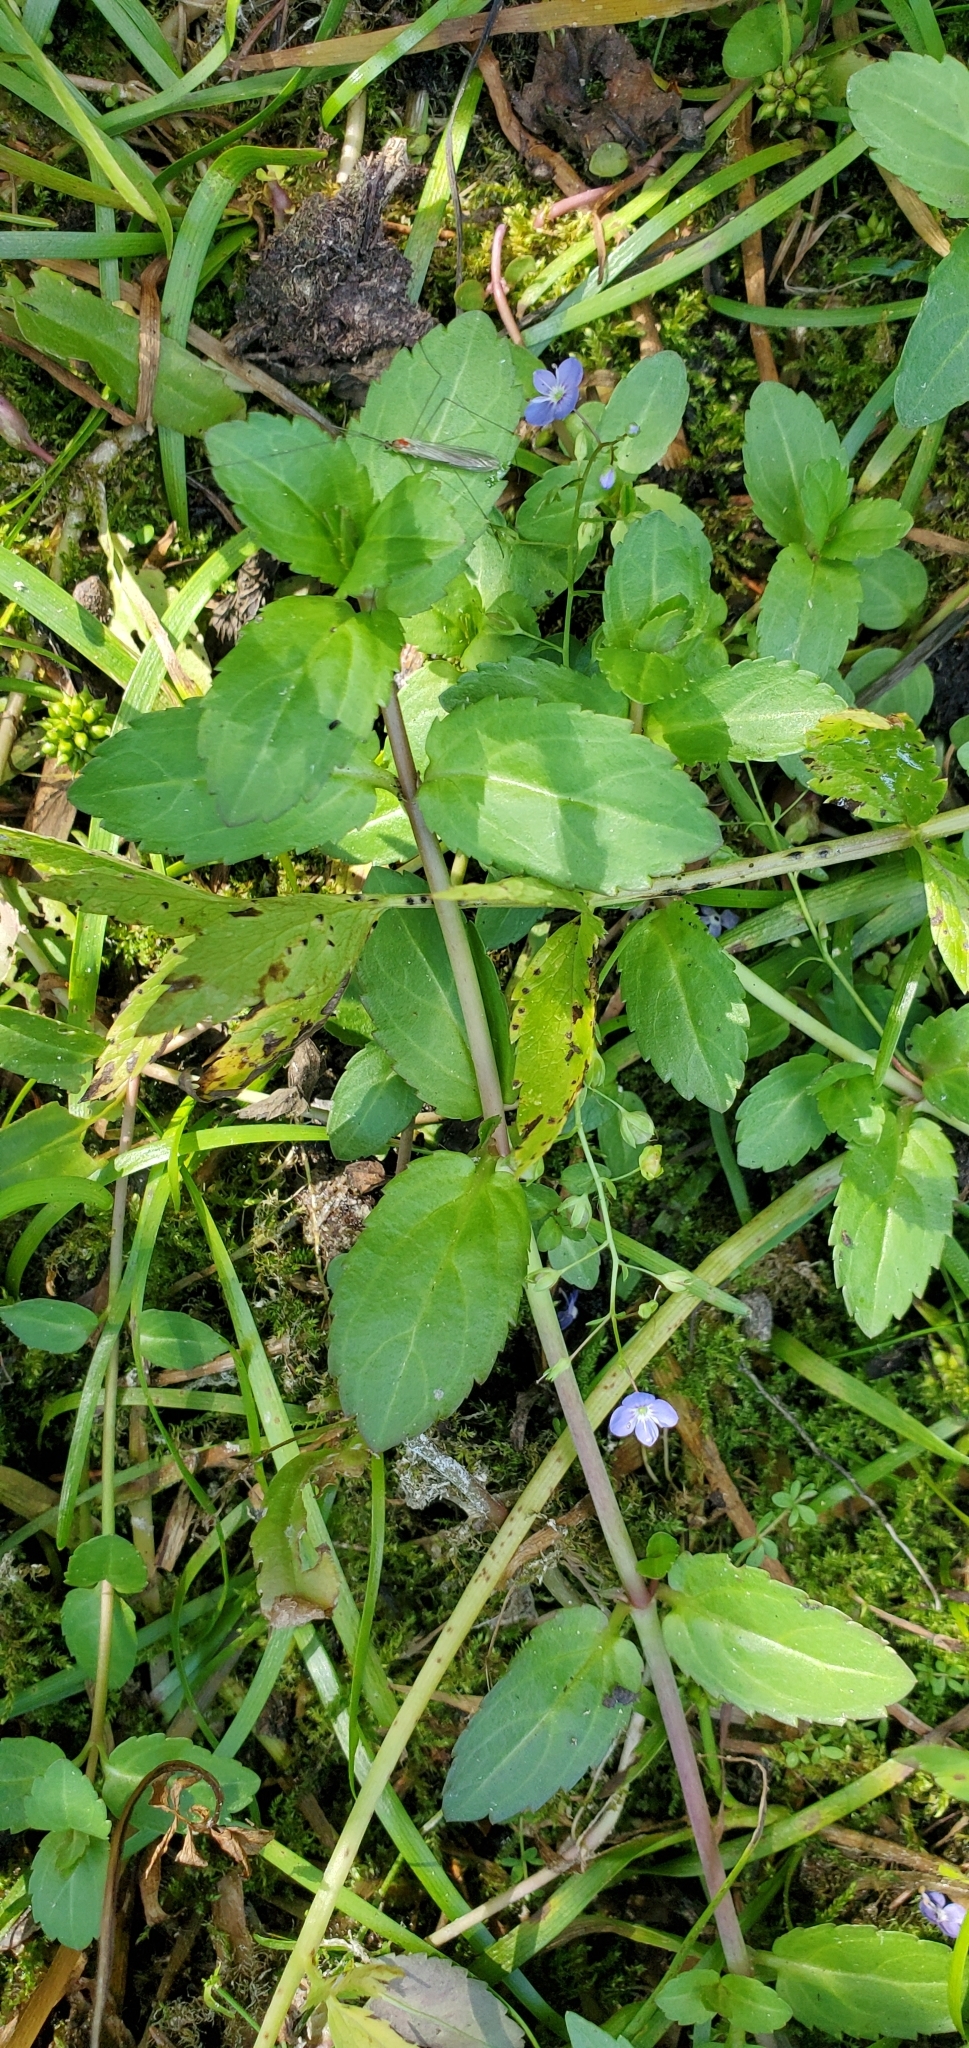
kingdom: Plantae
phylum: Tracheophyta
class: Magnoliopsida
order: Lamiales
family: Plantaginaceae
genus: Veronica
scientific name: Veronica americana
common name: American brooklime
